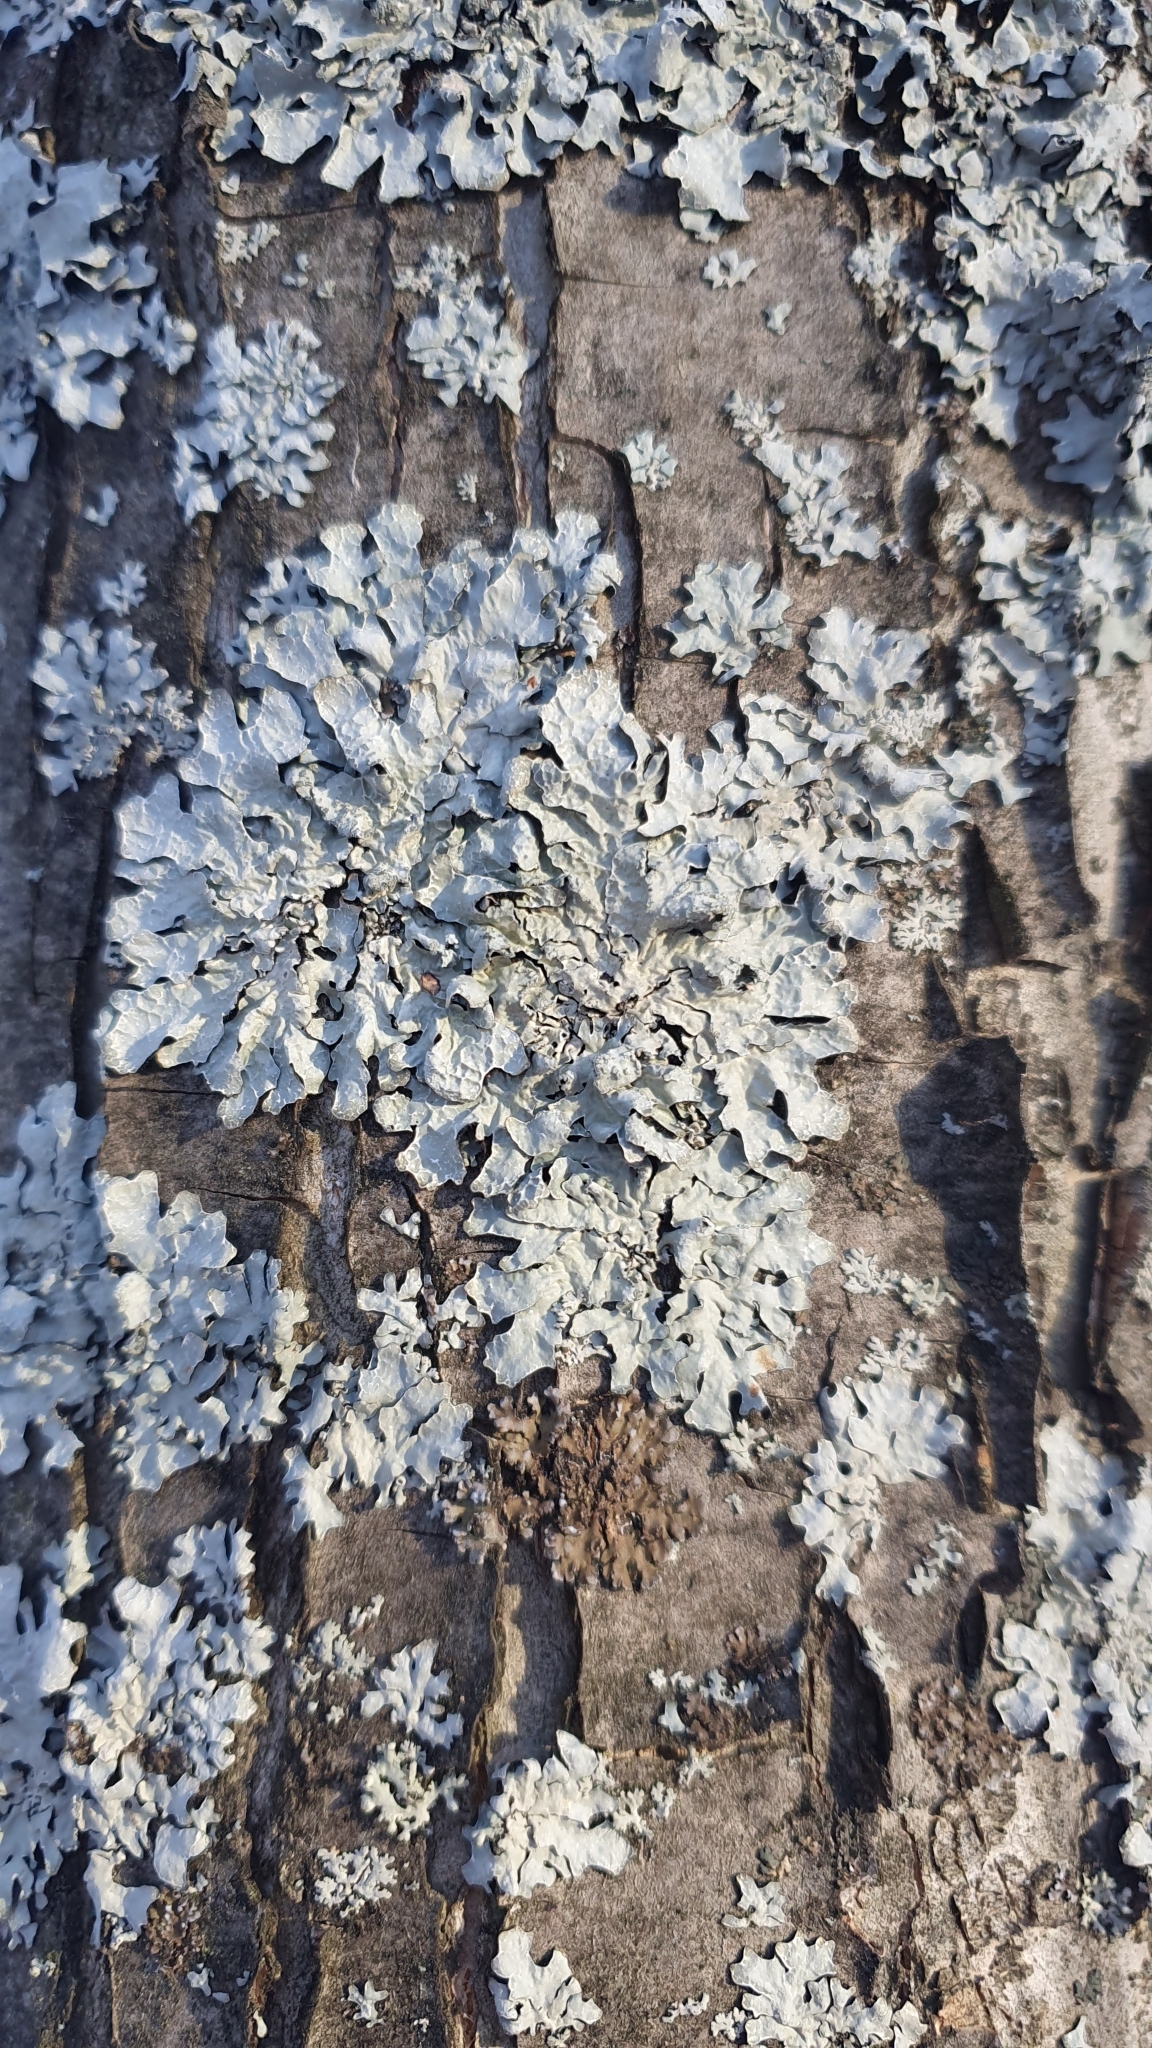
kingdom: Fungi
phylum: Ascomycota
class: Lecanoromycetes
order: Lecanorales
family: Parmeliaceae
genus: Parmelia
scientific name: Parmelia sulcata
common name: Netted shield lichen
